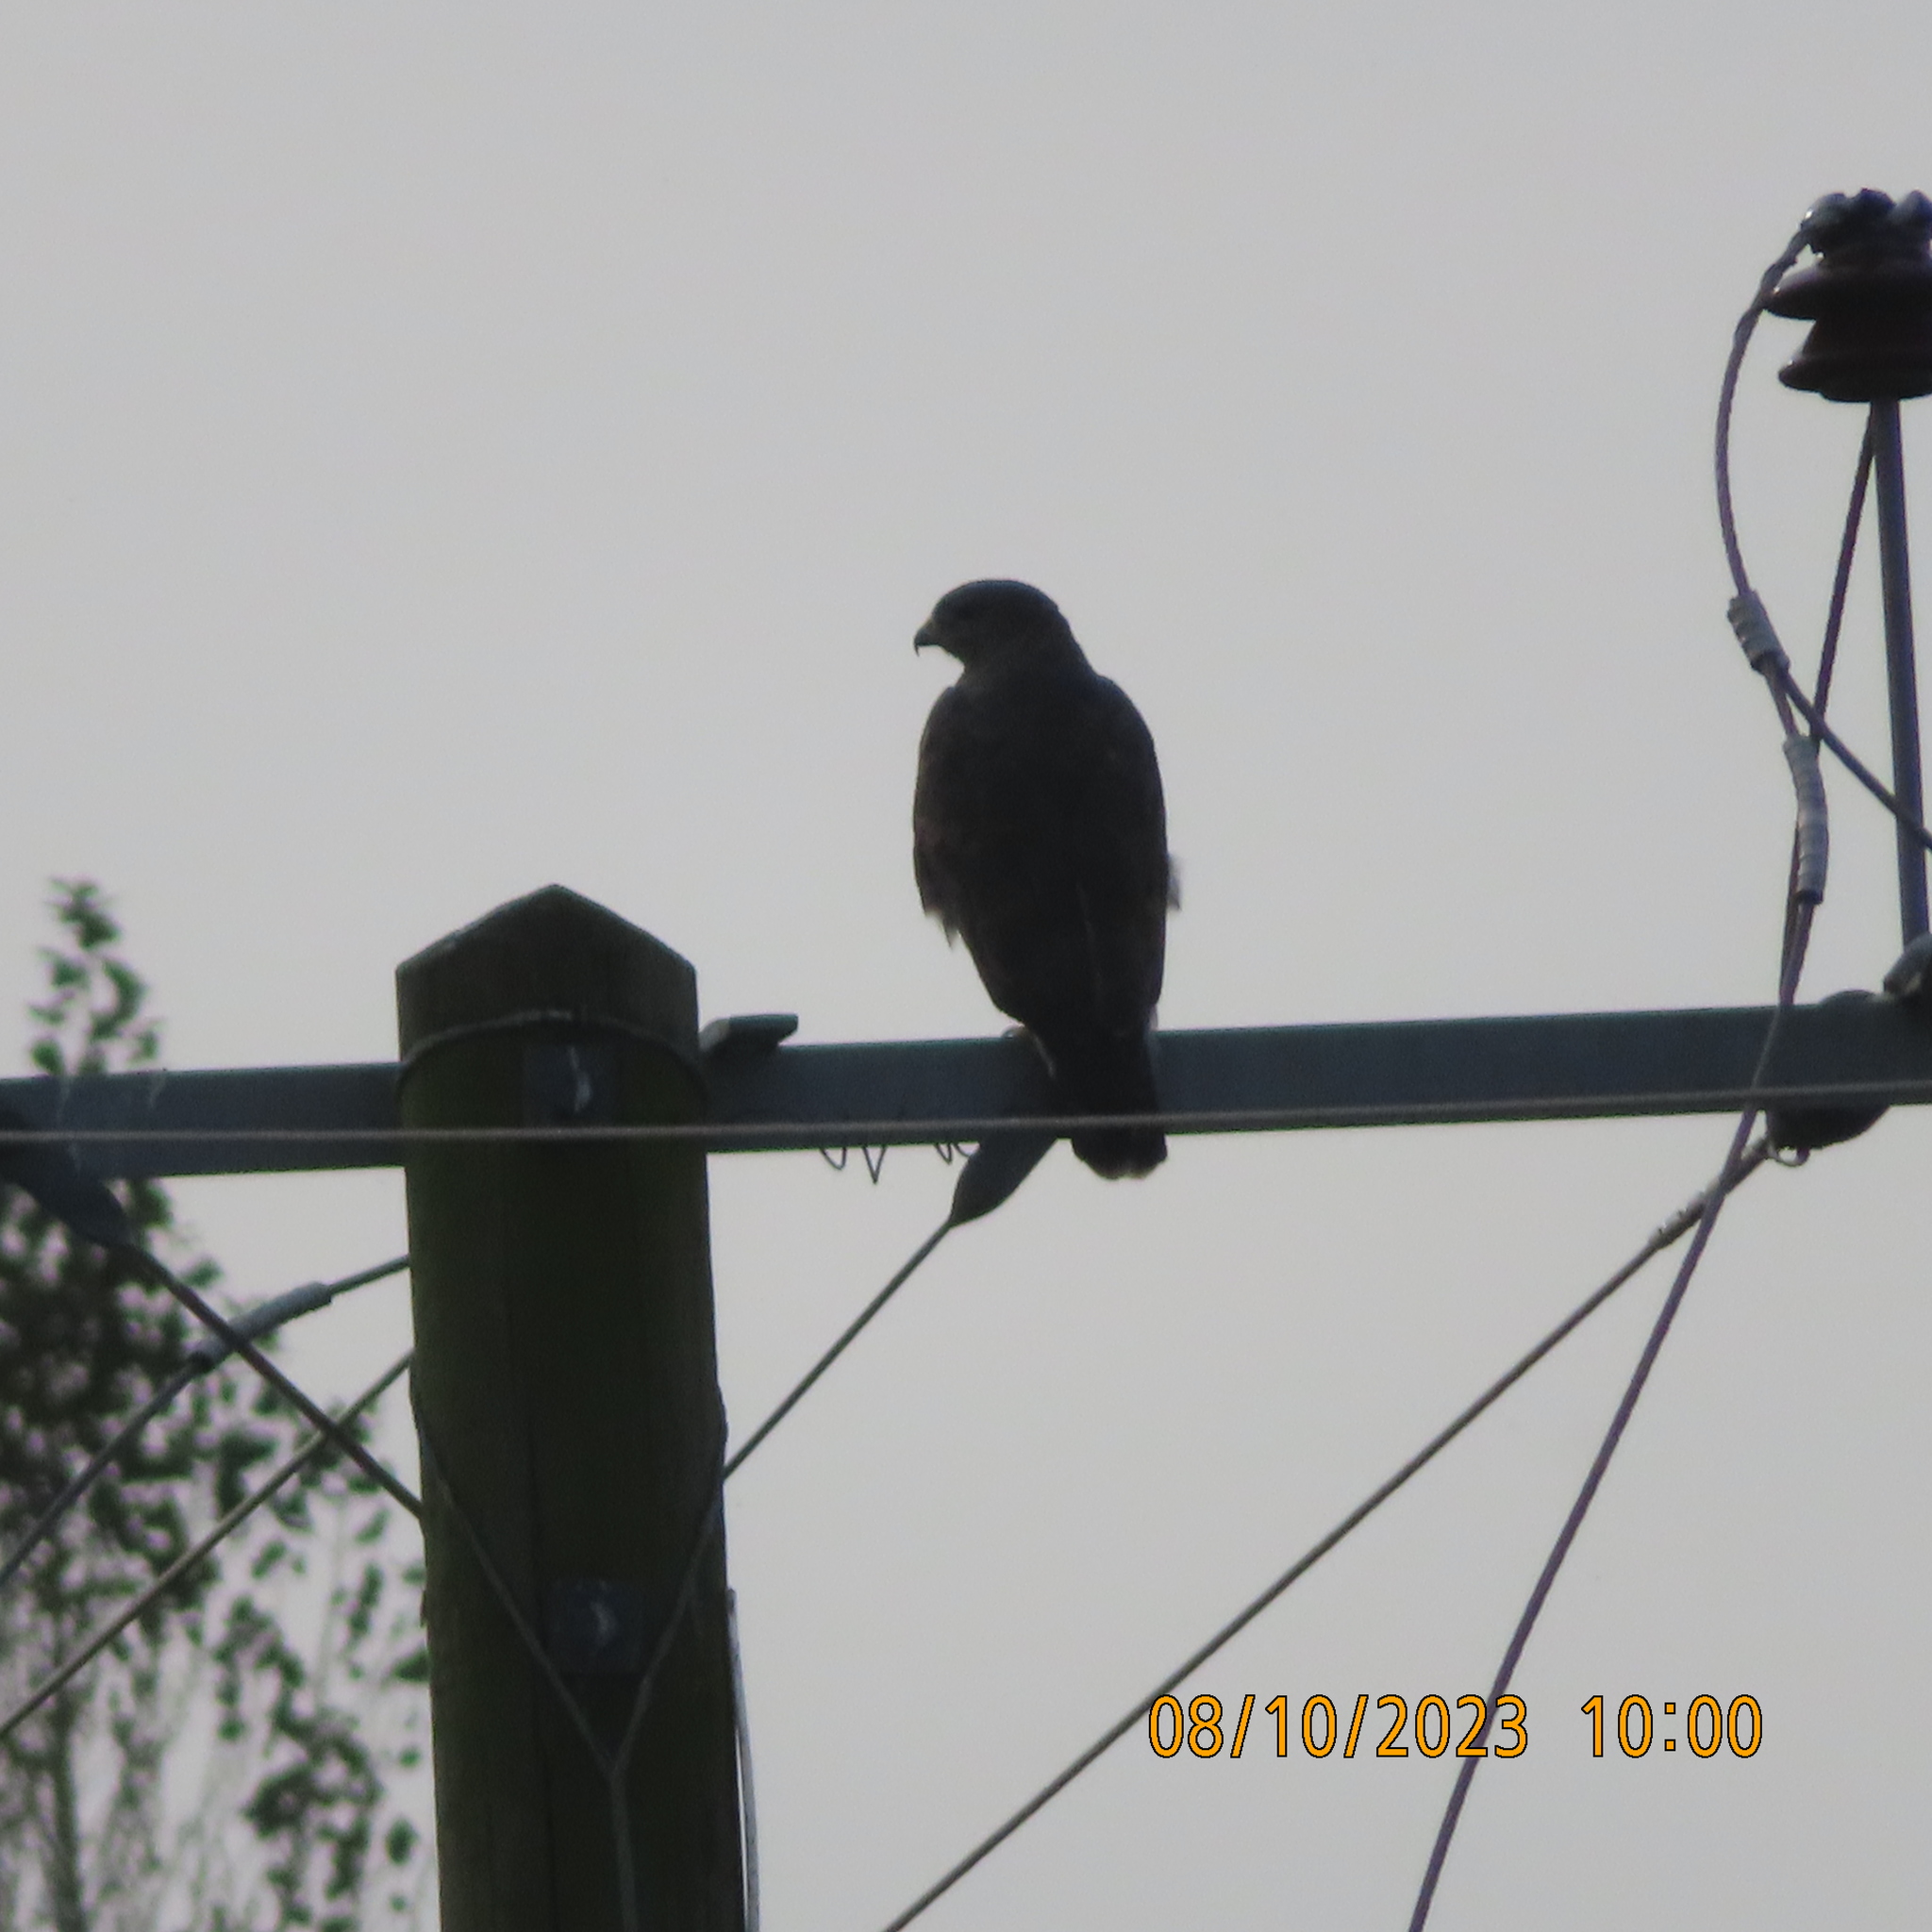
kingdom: Animalia
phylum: Chordata
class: Aves
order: Accipitriformes
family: Accipitridae
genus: Buteo
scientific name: Buteo buteo
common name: Common buzzard
